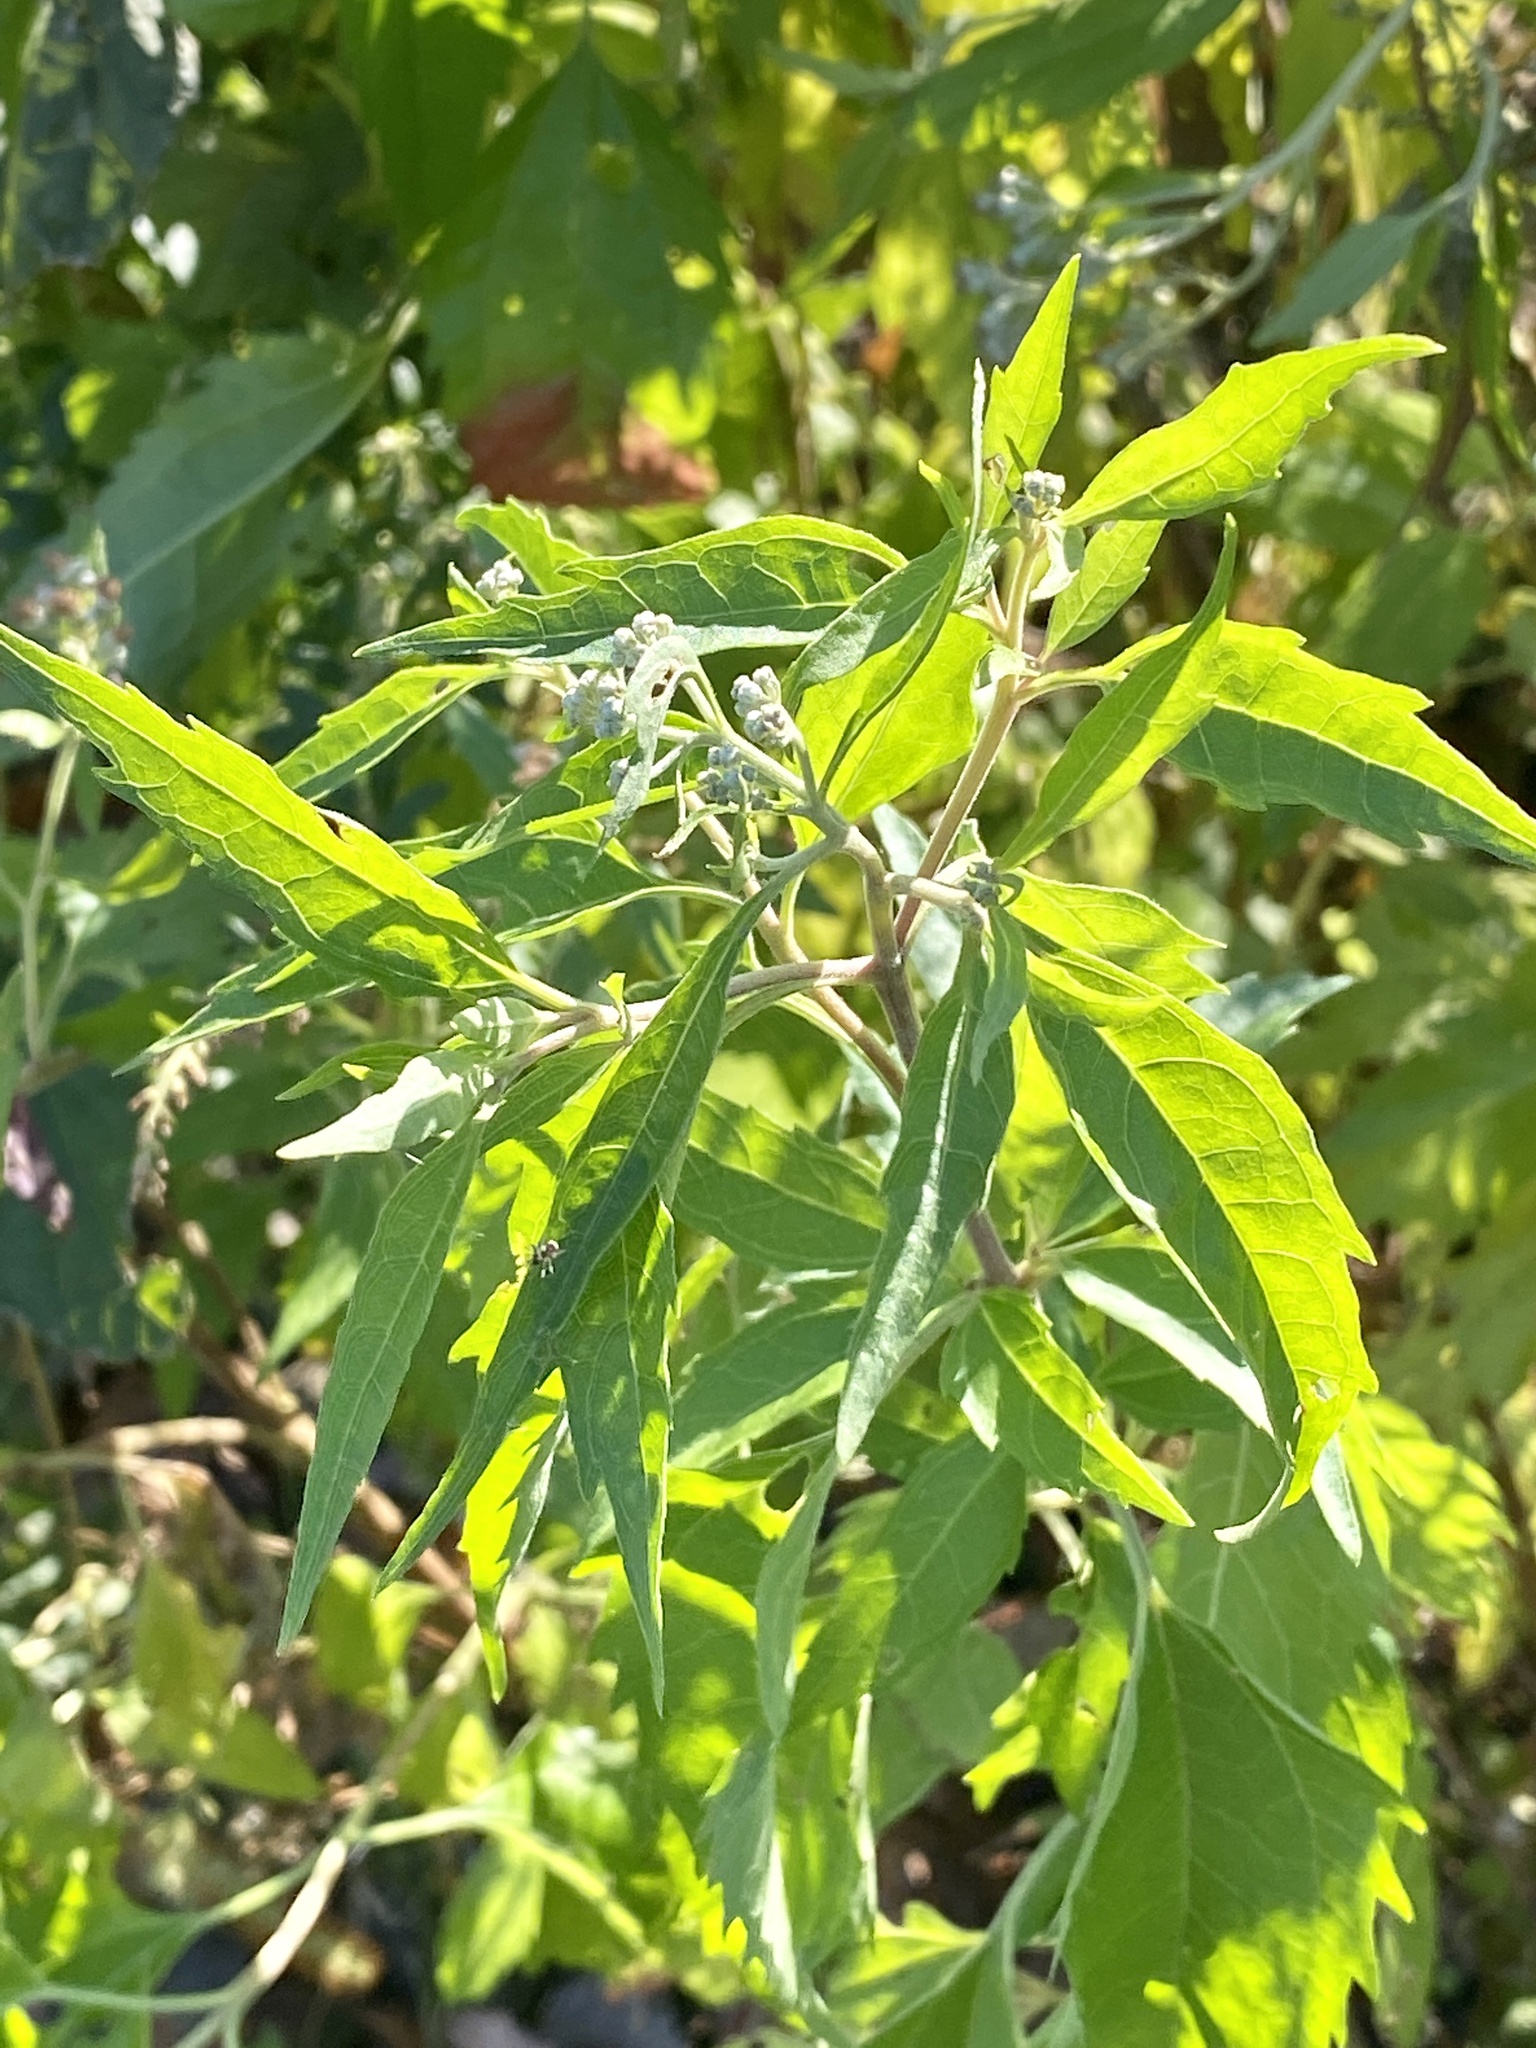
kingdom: Plantae
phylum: Tracheophyta
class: Magnoliopsida
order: Asterales
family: Asteraceae
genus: Eupatorium
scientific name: Eupatorium serotinum
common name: Late boneset
